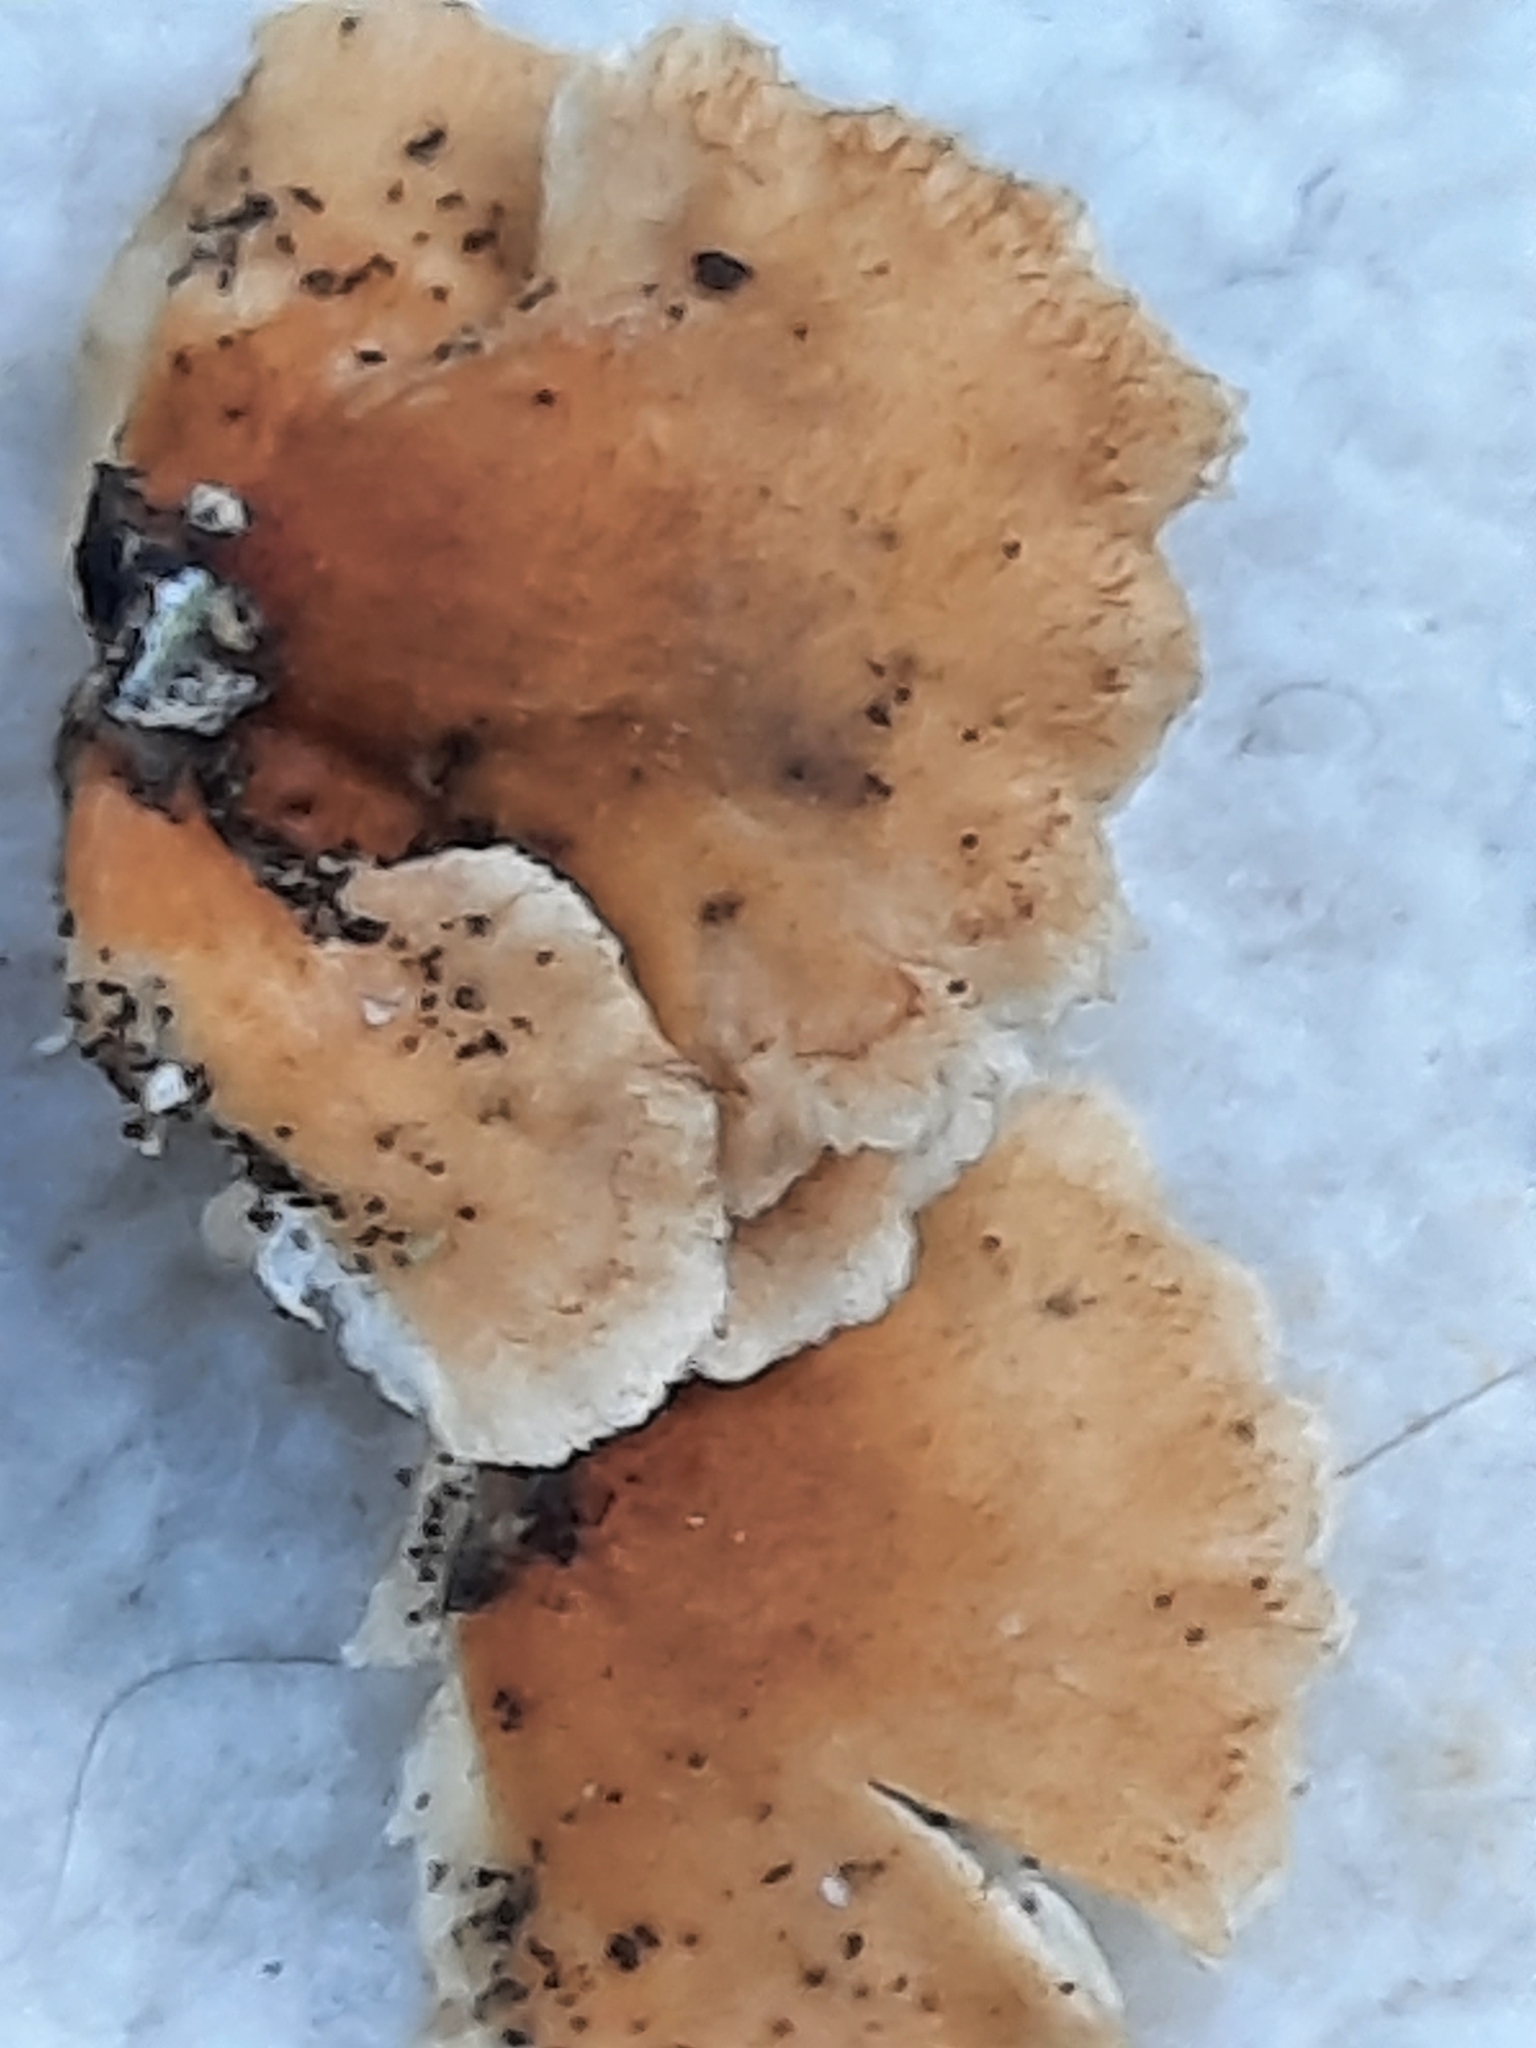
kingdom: Fungi
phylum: Basidiomycota
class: Agaricomycetes
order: Amylocorticiales
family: Amylocorticiaceae
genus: Plicaturopsis
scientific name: Plicaturopsis crispa
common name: Crimped gill
